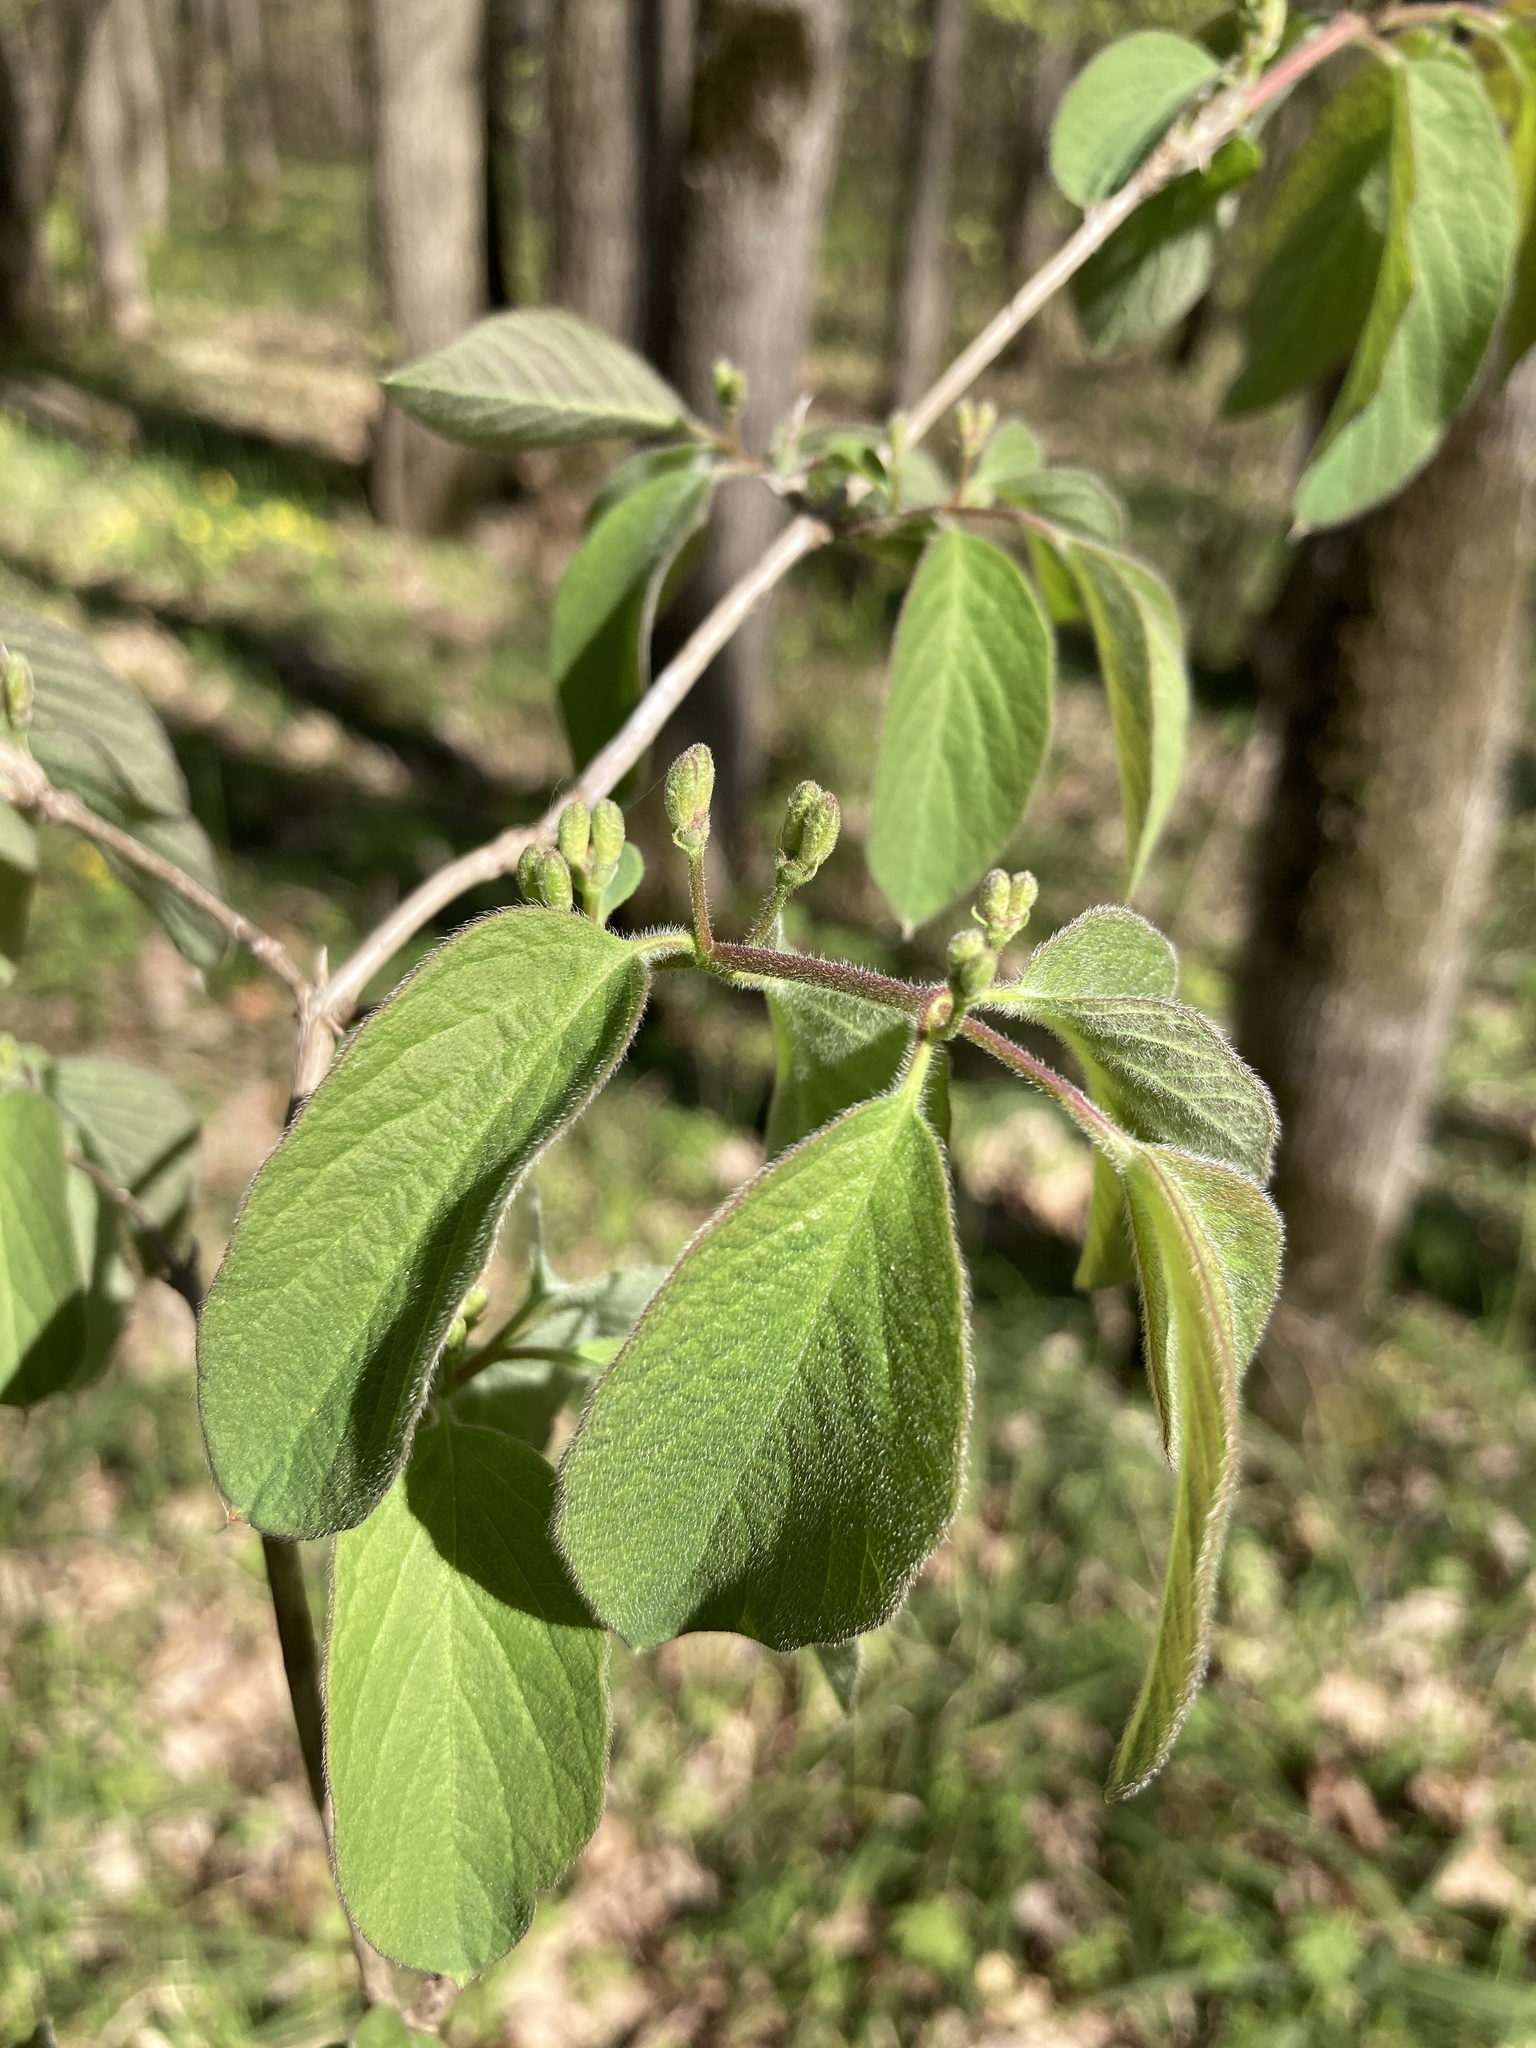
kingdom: Plantae
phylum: Tracheophyta
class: Magnoliopsida
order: Dipsacales
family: Caprifoliaceae
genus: Lonicera
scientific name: Lonicera xylosteum
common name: Fly honeysuckle
